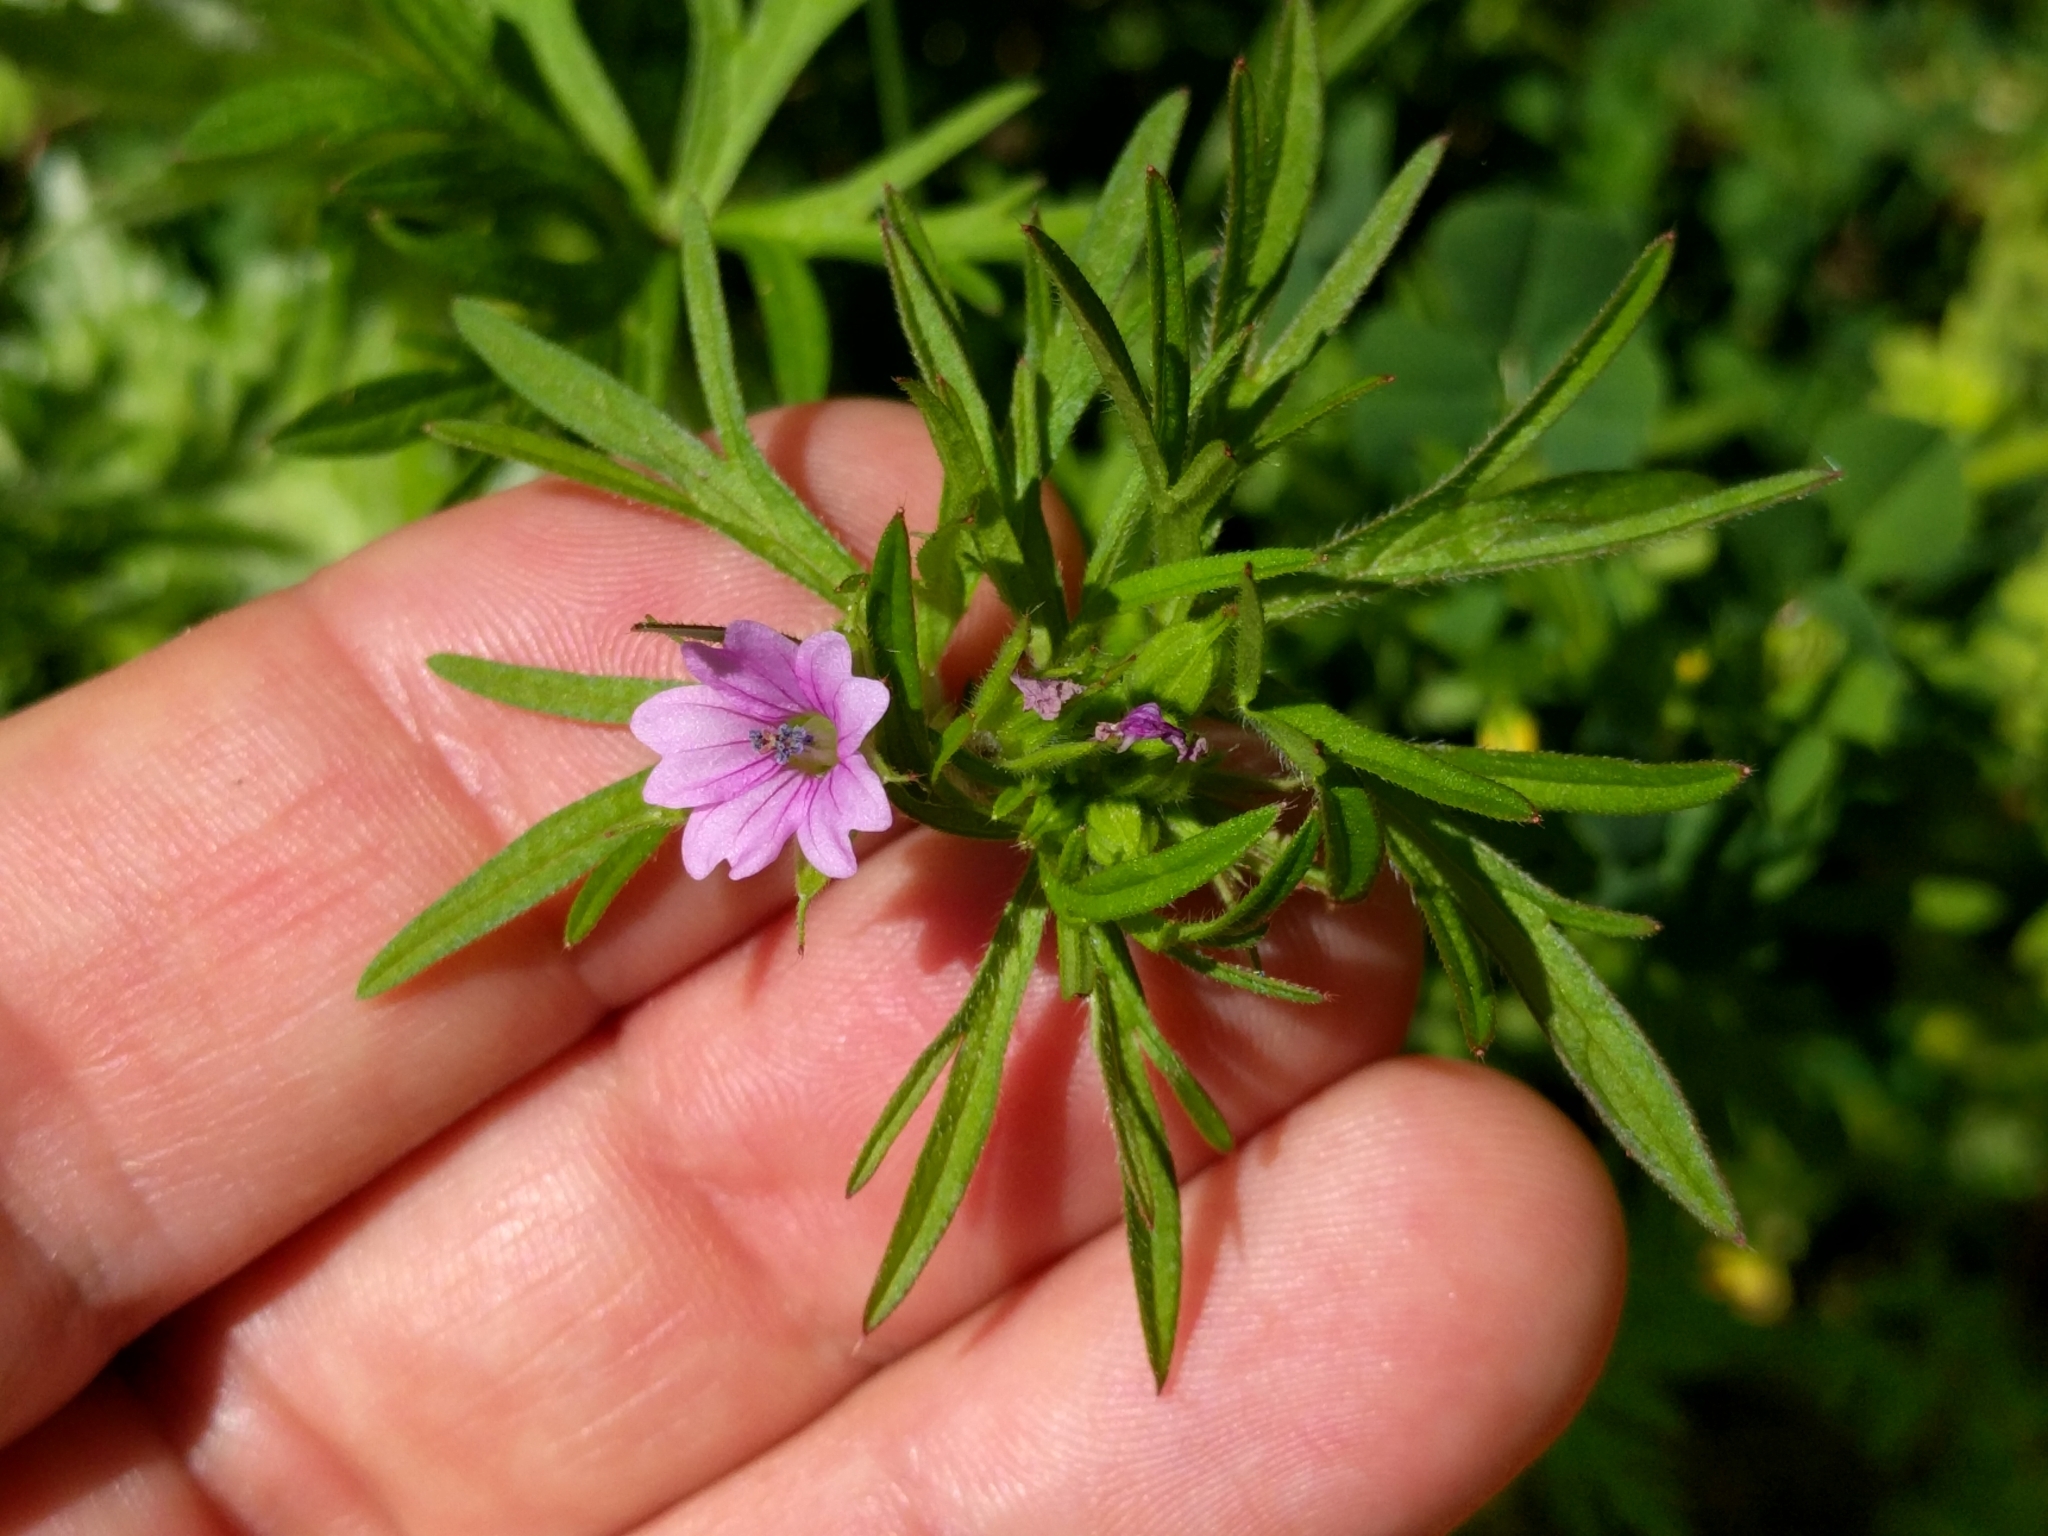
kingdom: Plantae
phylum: Tracheophyta
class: Magnoliopsida
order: Geraniales
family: Geraniaceae
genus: Geranium
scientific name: Geranium dissectum
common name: Cut-leaved crane's-bill
